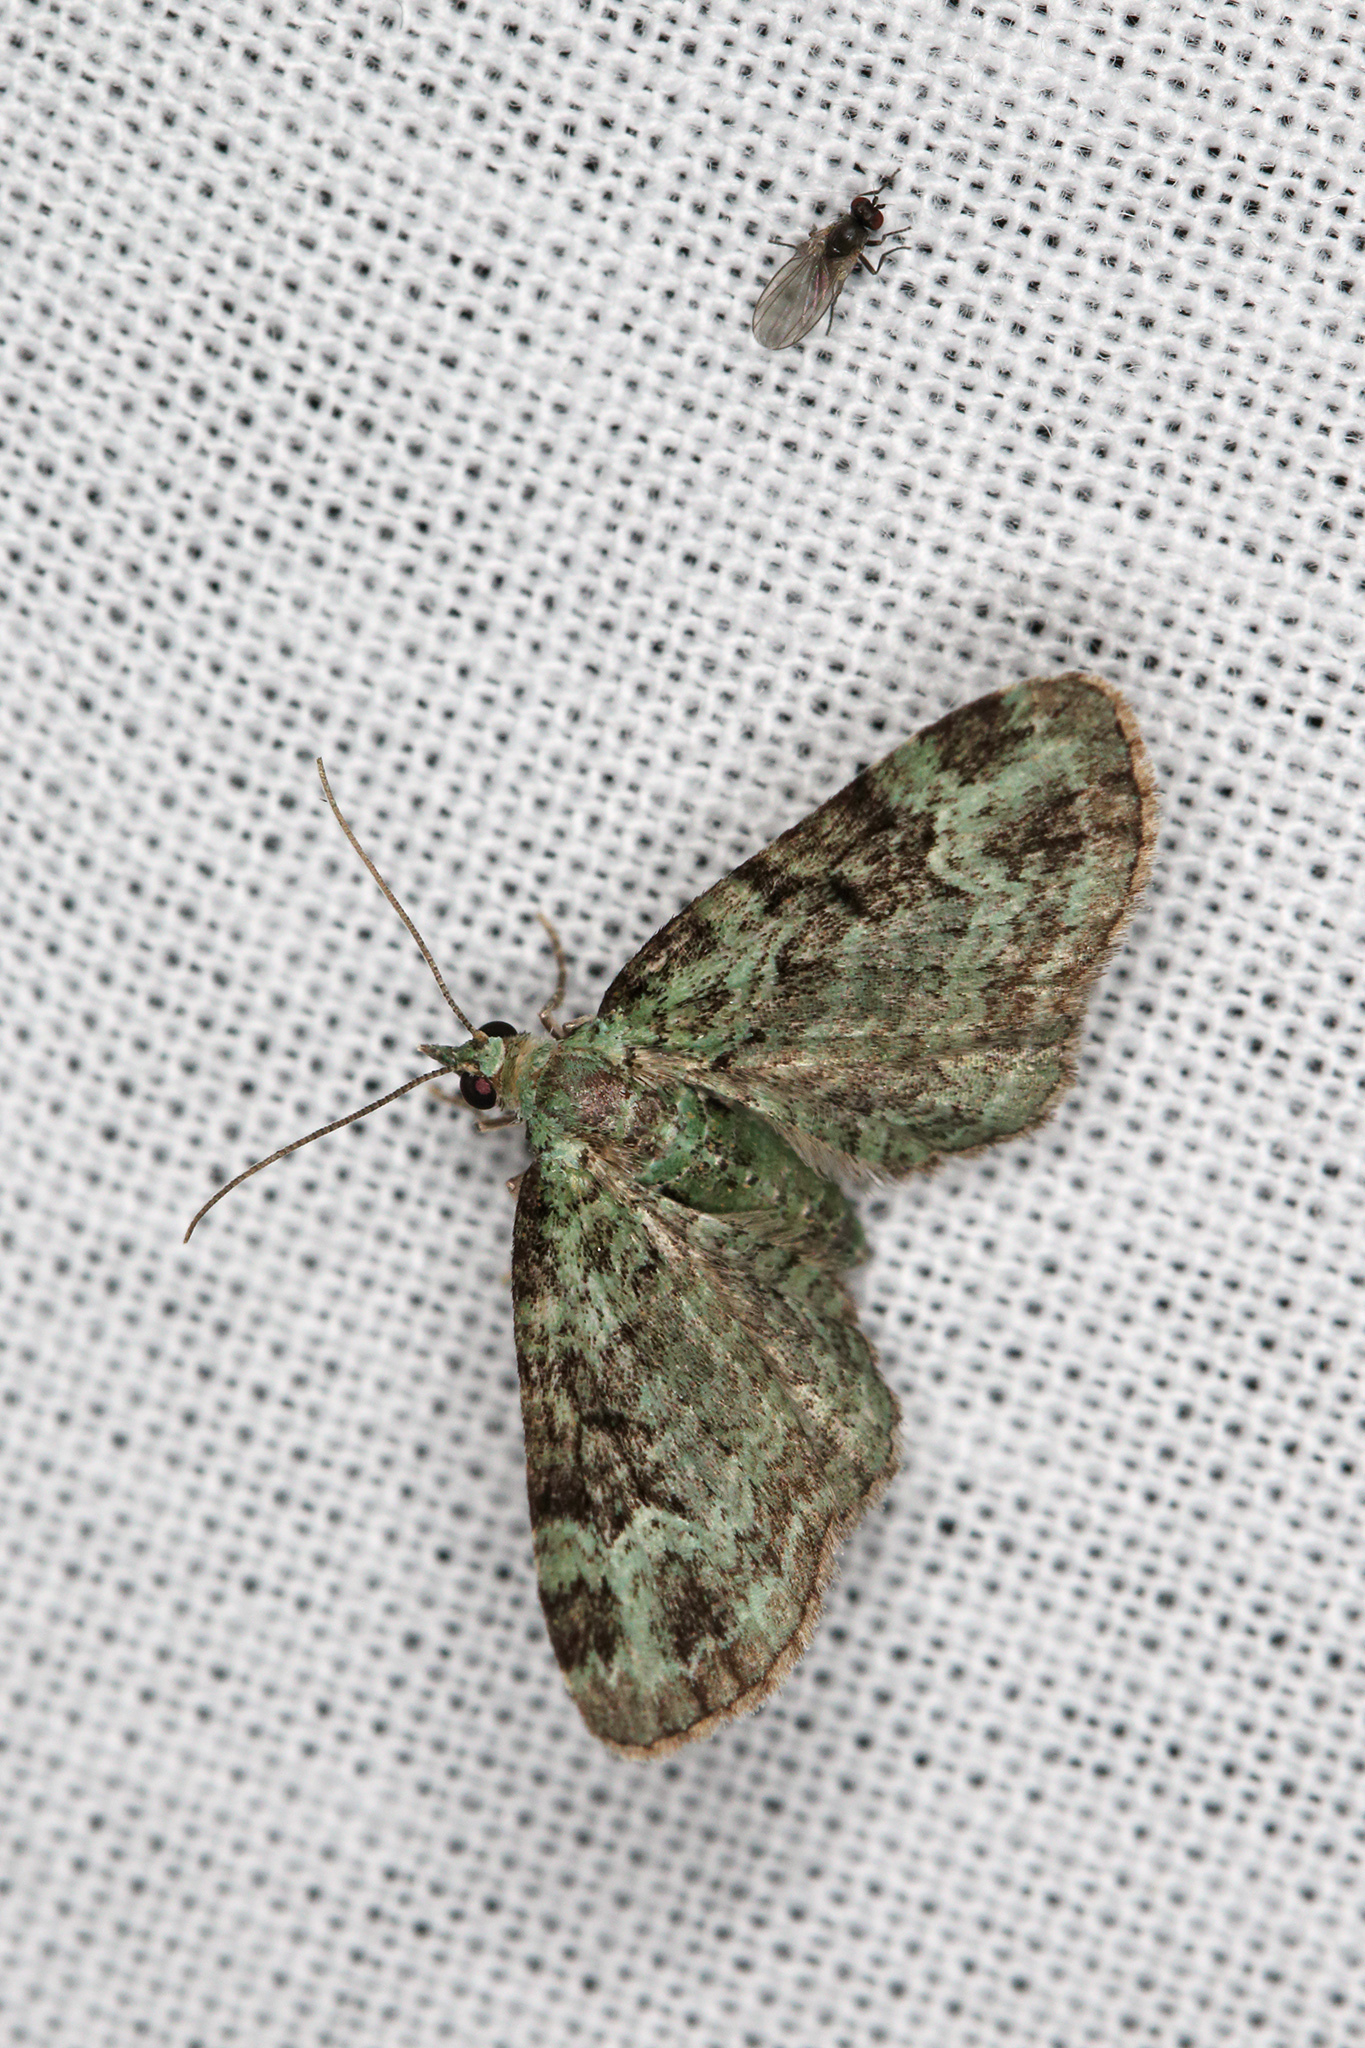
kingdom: Animalia
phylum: Arthropoda
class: Insecta
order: Lepidoptera
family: Geometridae
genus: Pasiphila
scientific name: Pasiphila rectangulata
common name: Green pug
